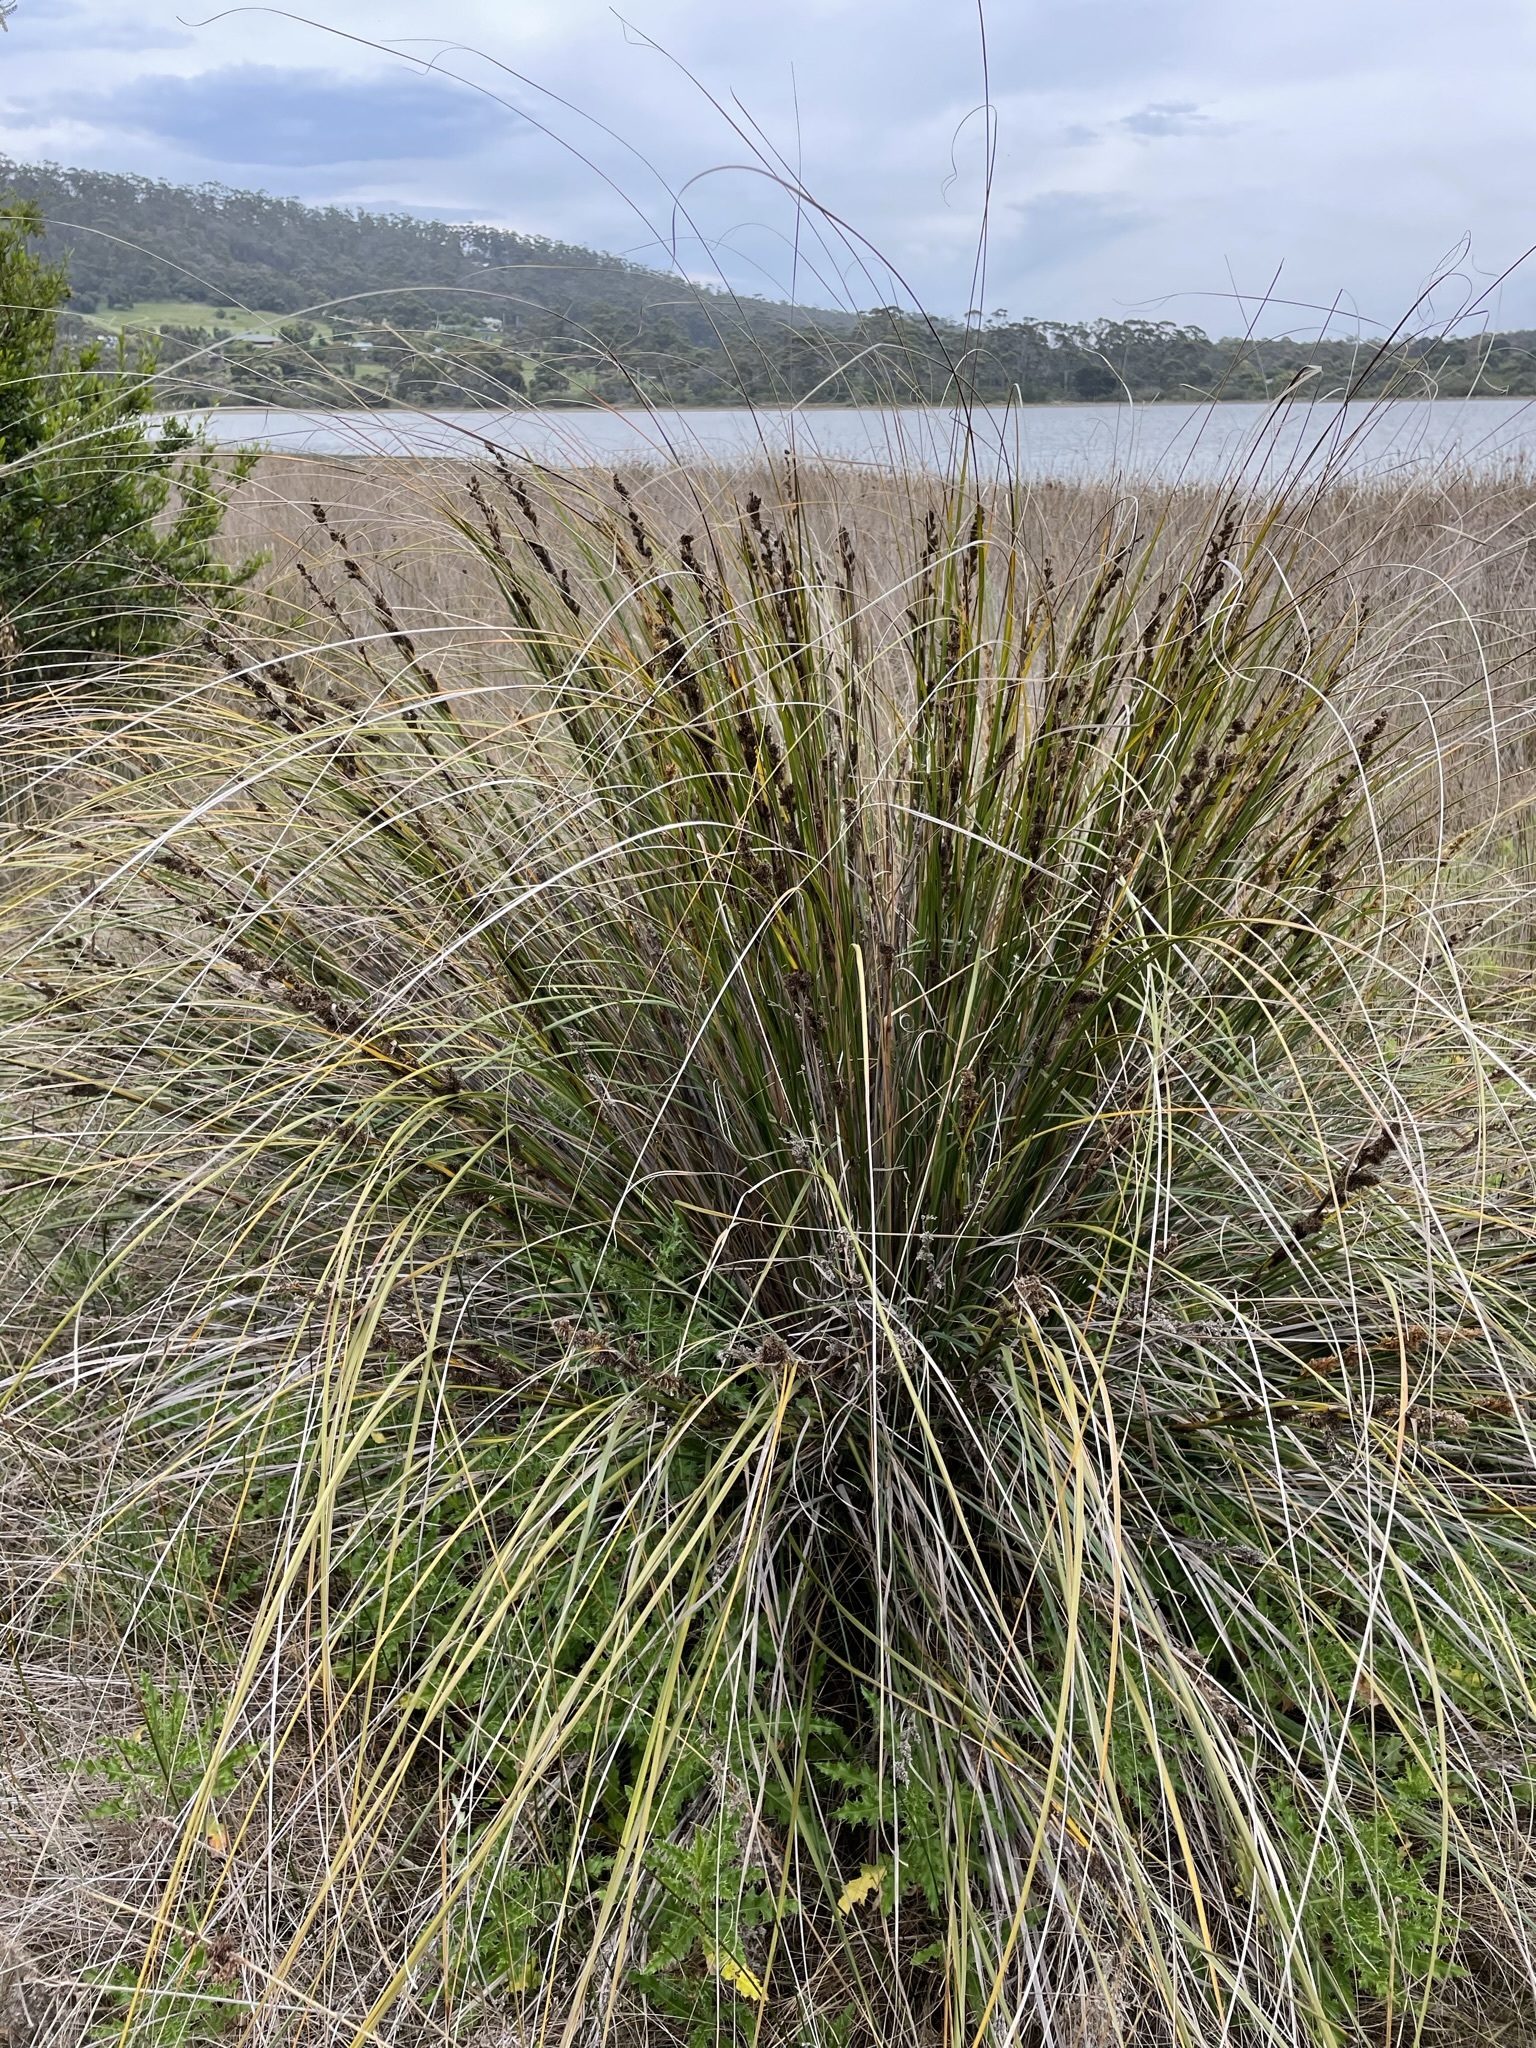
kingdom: Plantae
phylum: Tracheophyta
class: Liliopsida
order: Poales
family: Cyperaceae
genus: Gahnia
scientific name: Gahnia trifida
